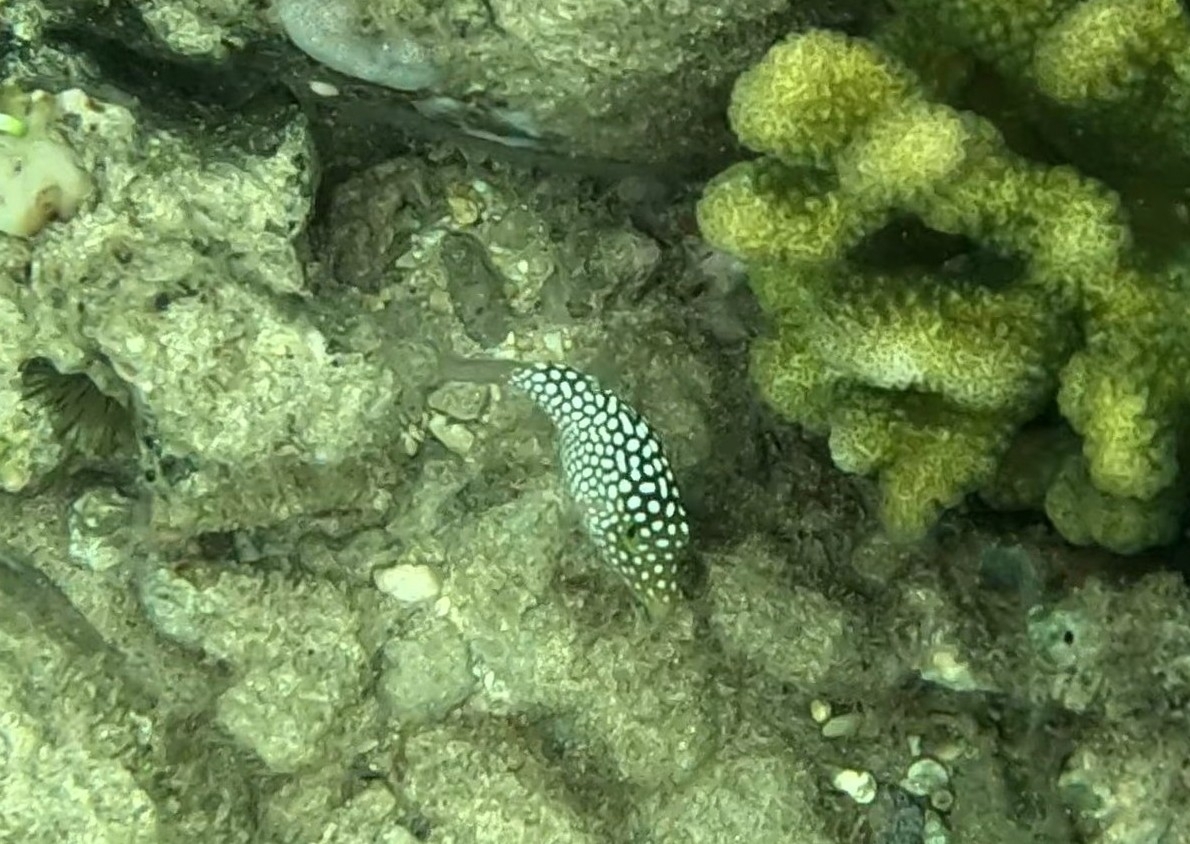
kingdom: Animalia
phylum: Chordata
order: Tetraodontiformes
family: Tetraodontidae
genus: Canthigaster
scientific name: Canthigaster jactator
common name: Hawaiian whitespotted toby
